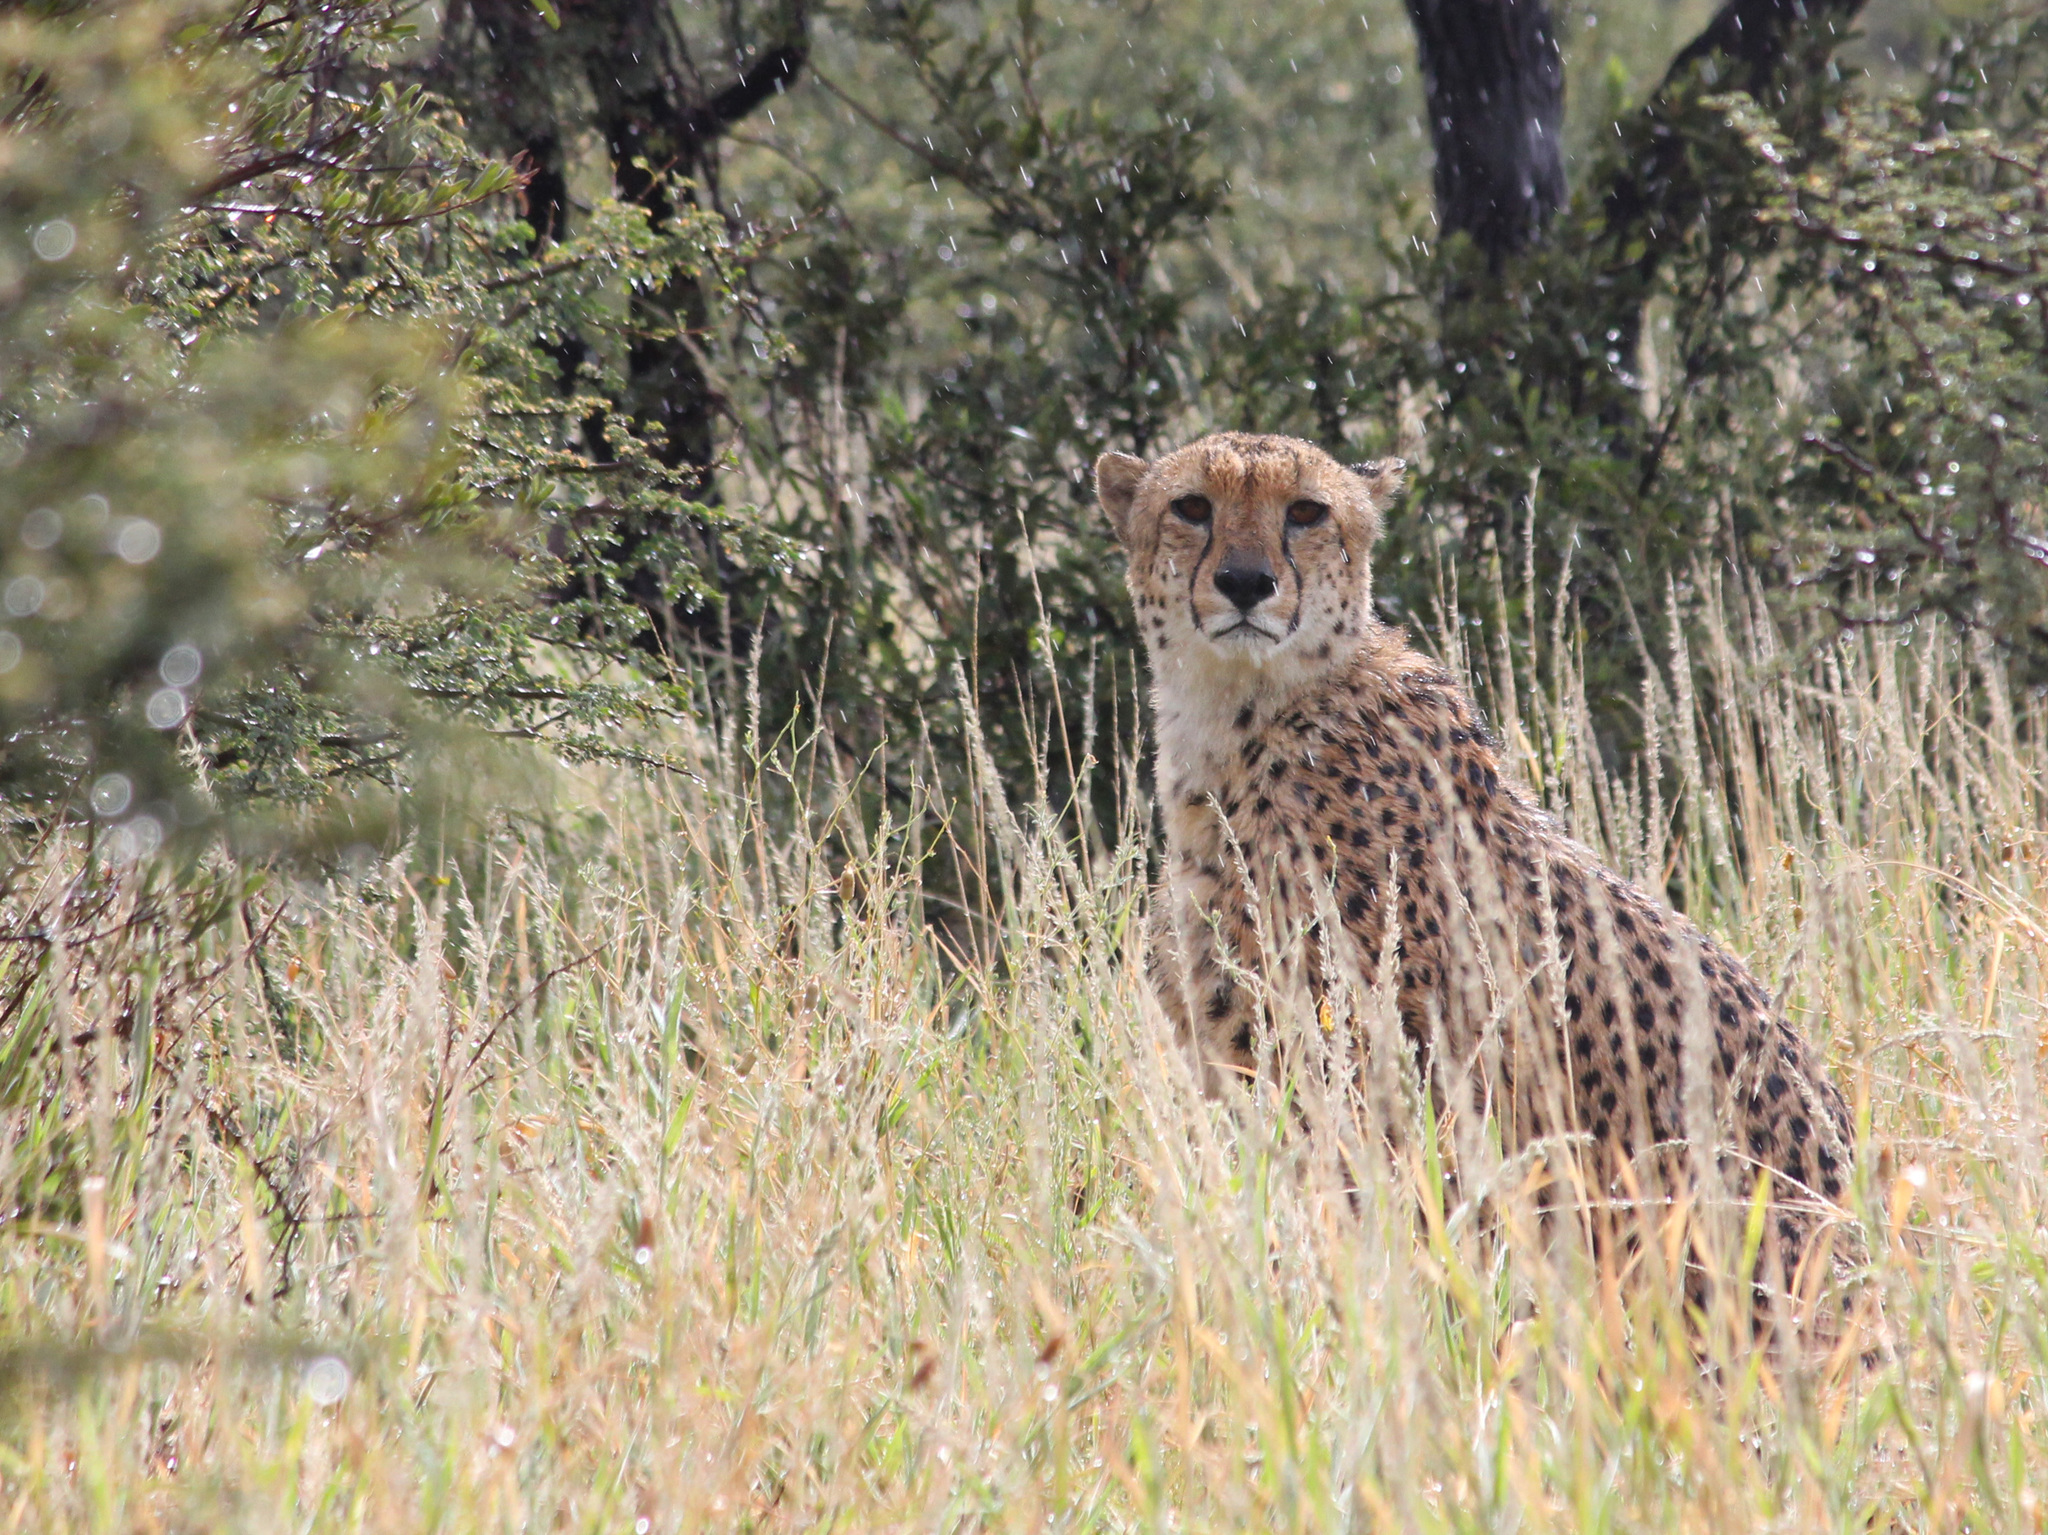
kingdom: Animalia
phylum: Chordata
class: Mammalia
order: Carnivora
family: Felidae
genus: Acinonyx
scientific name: Acinonyx jubatus
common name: Cheetah
